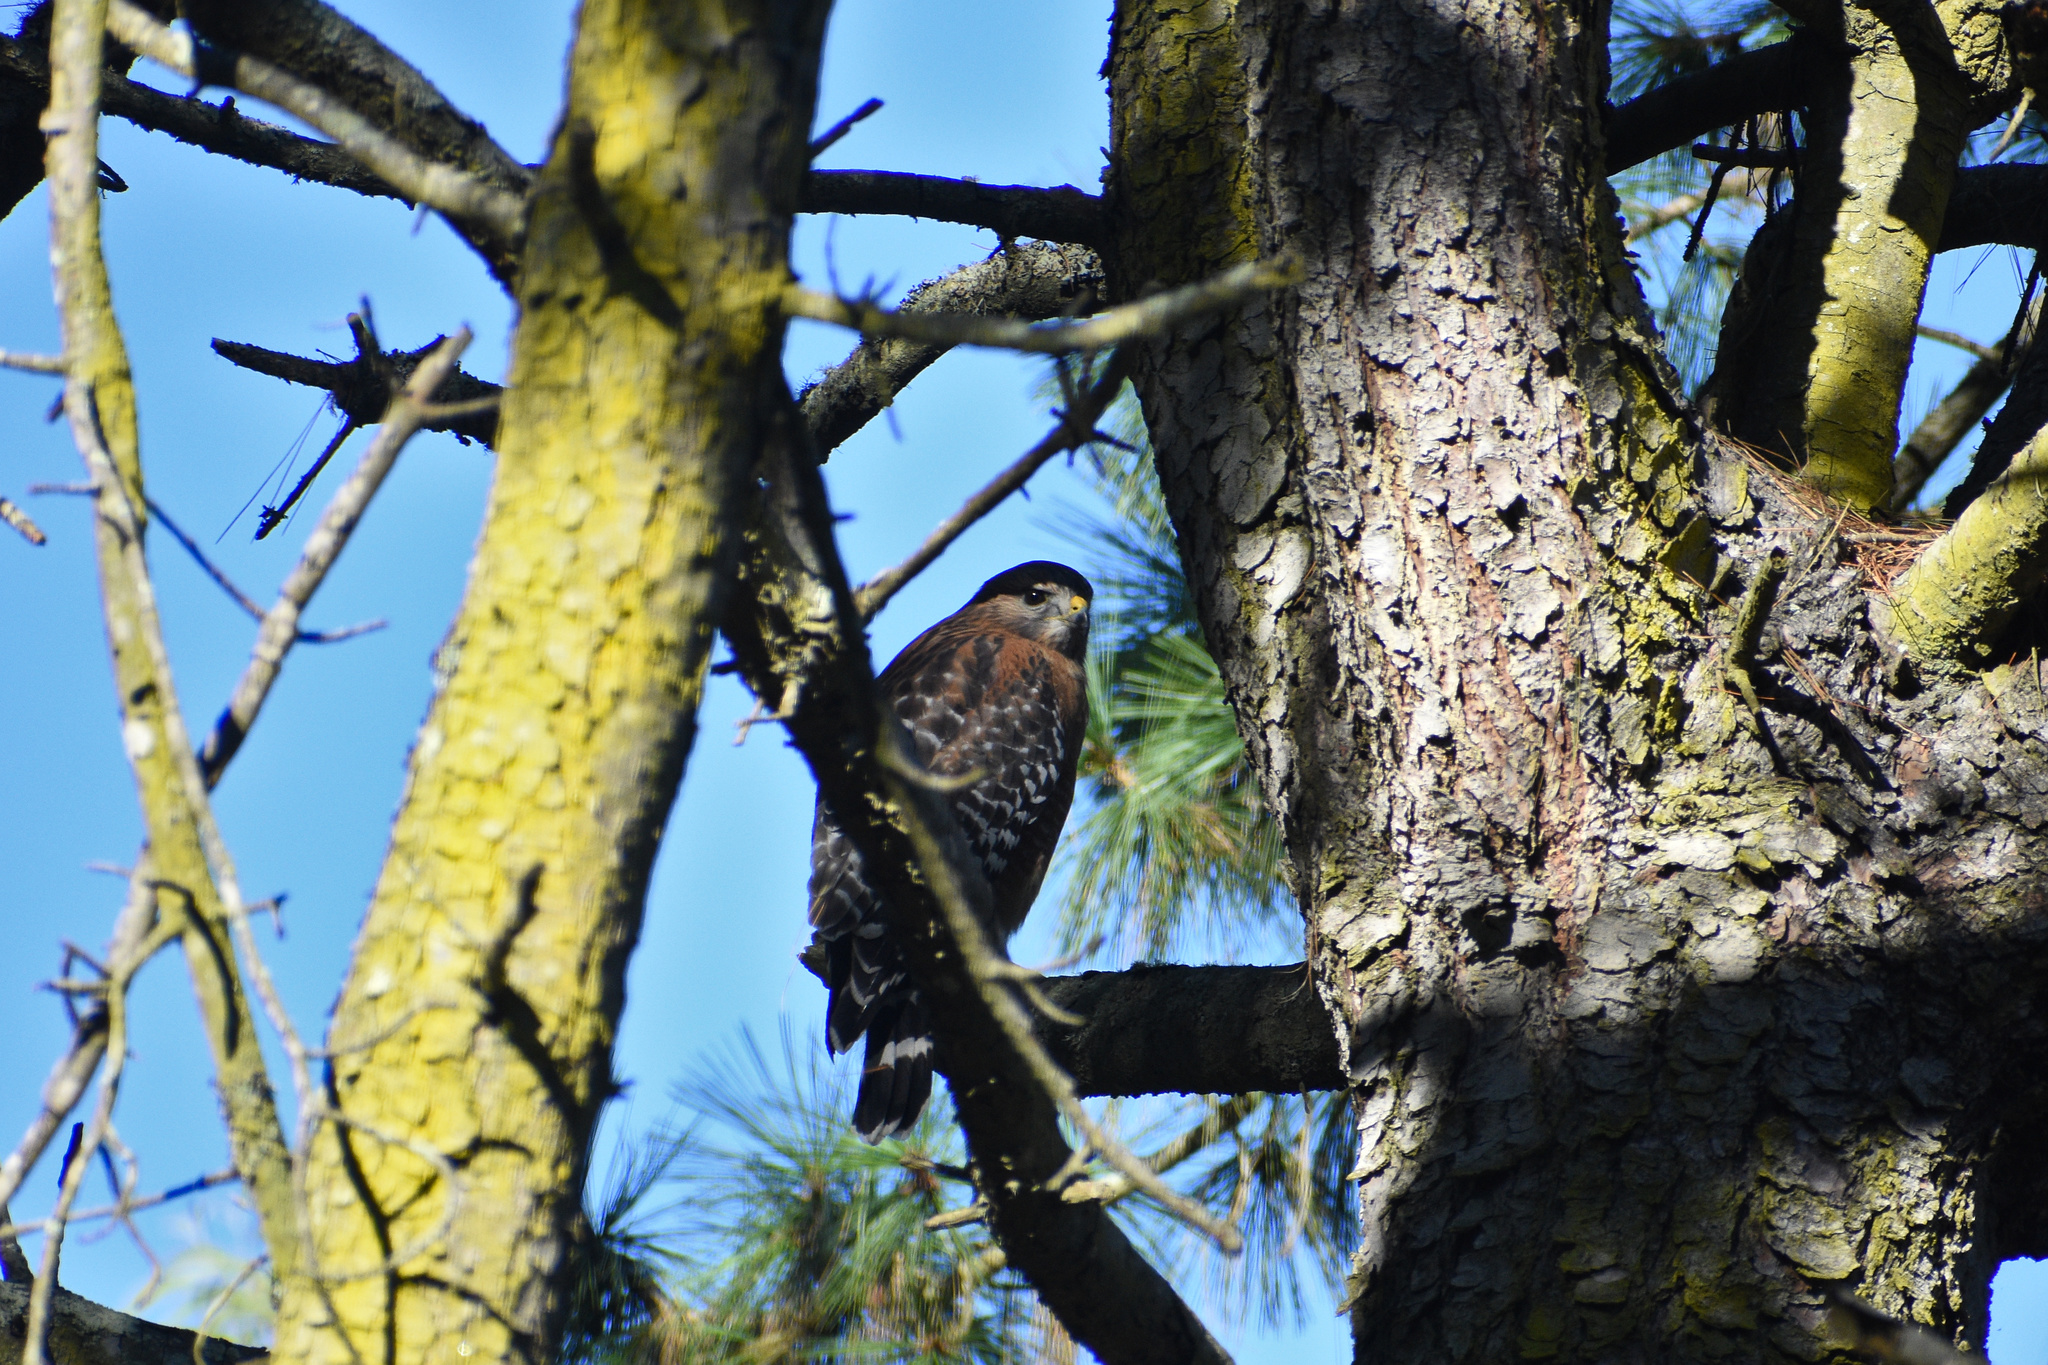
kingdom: Animalia
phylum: Chordata
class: Aves
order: Accipitriformes
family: Accipitridae
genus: Buteo
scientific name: Buteo lineatus
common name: Red-shouldered hawk
